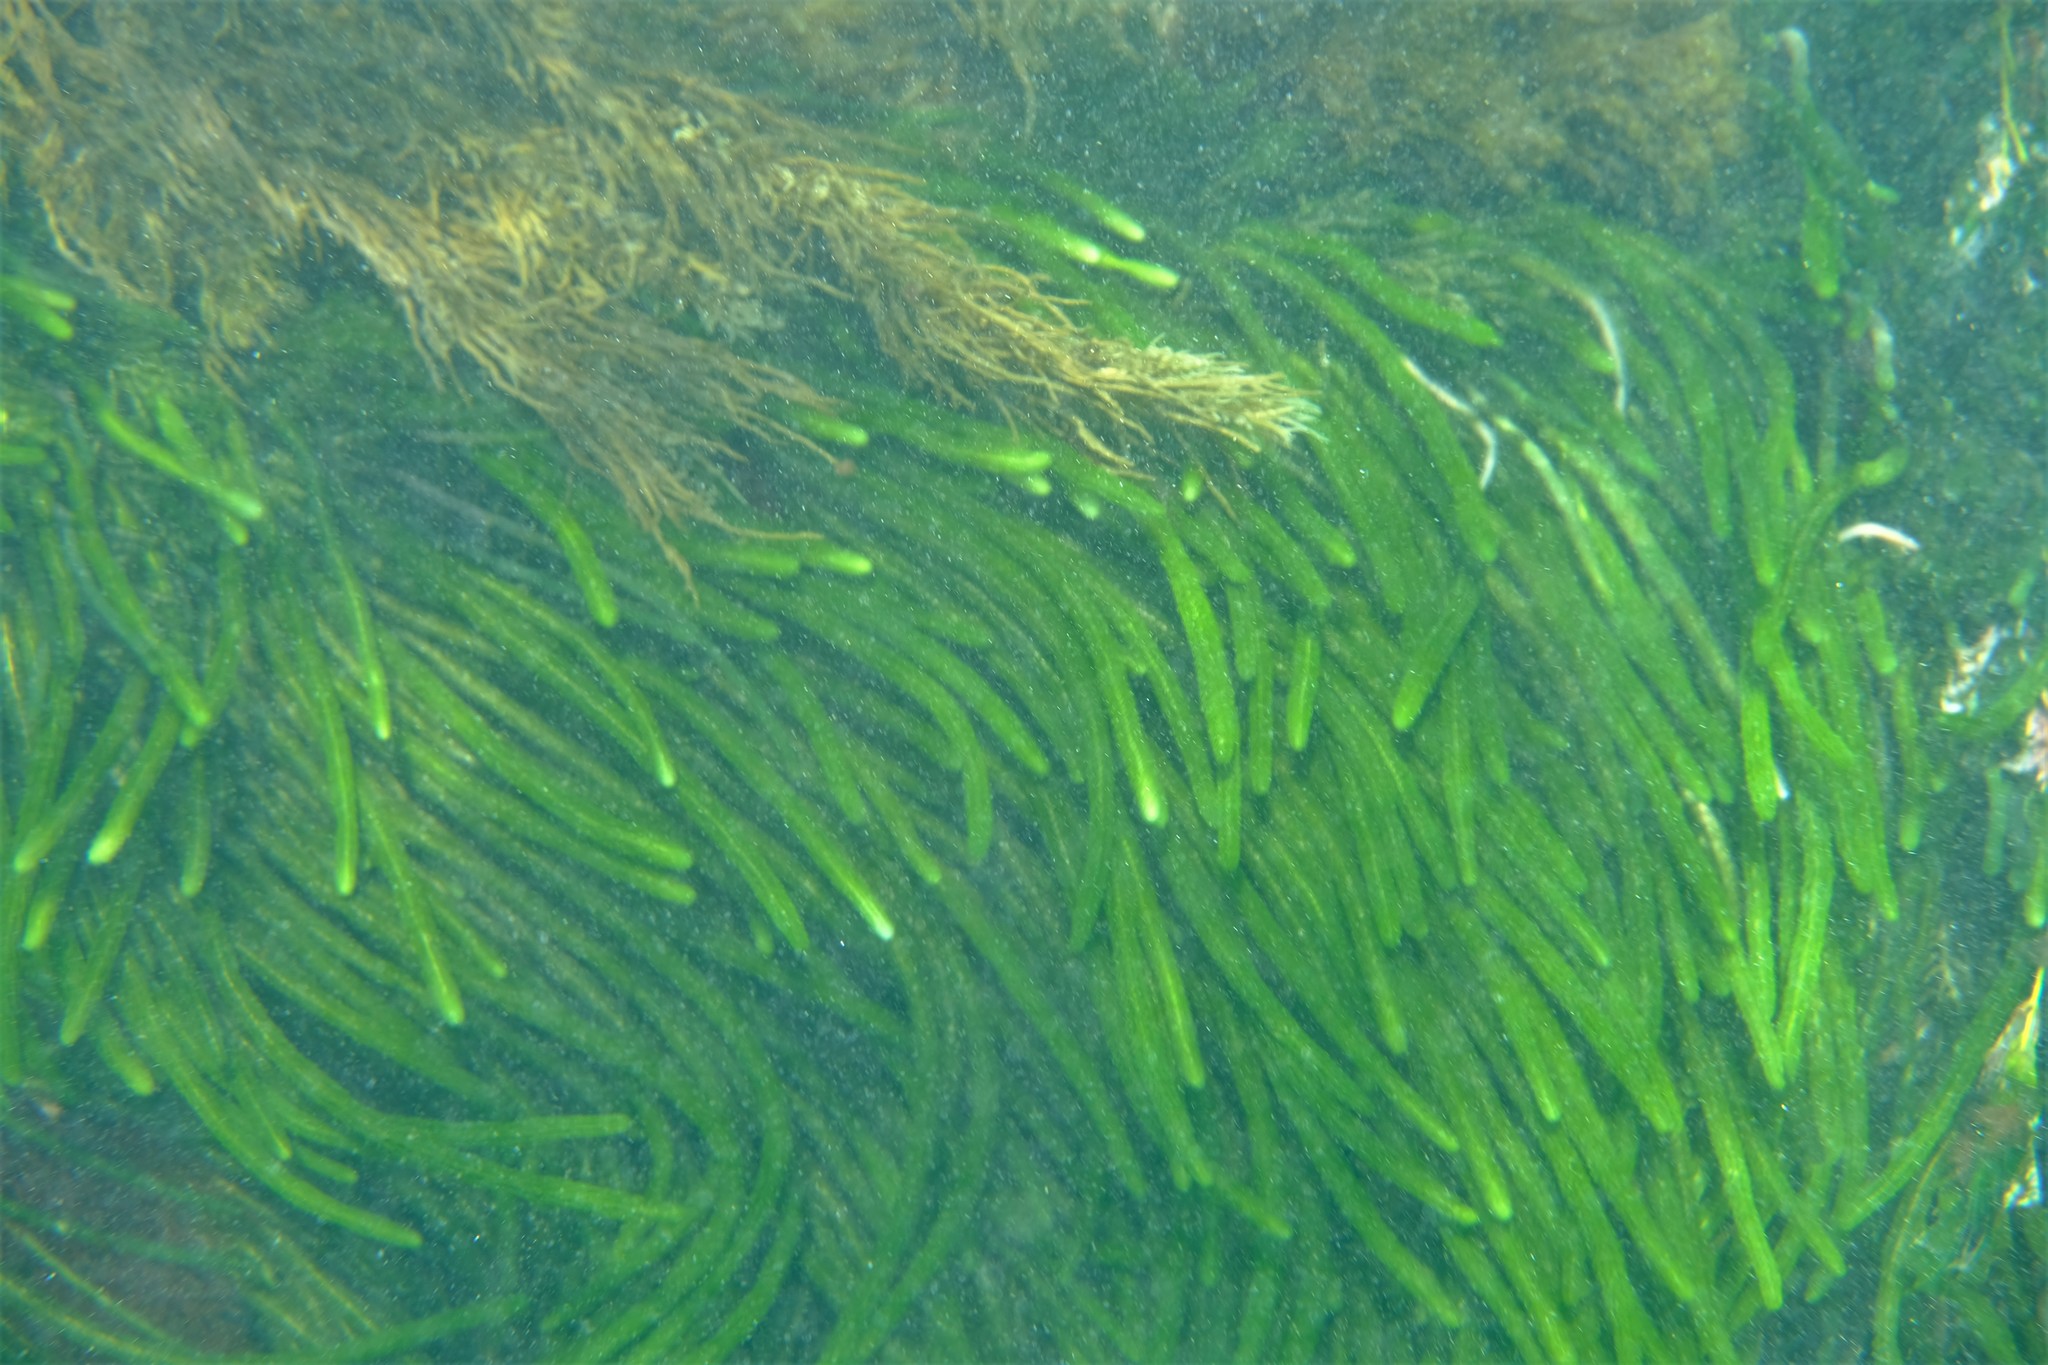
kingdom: Plantae
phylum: Chlorophyta
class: Ulvophyceae
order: Bryopsidales
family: Caulerpaceae
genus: Caulerpa
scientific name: Caulerpa brownii
